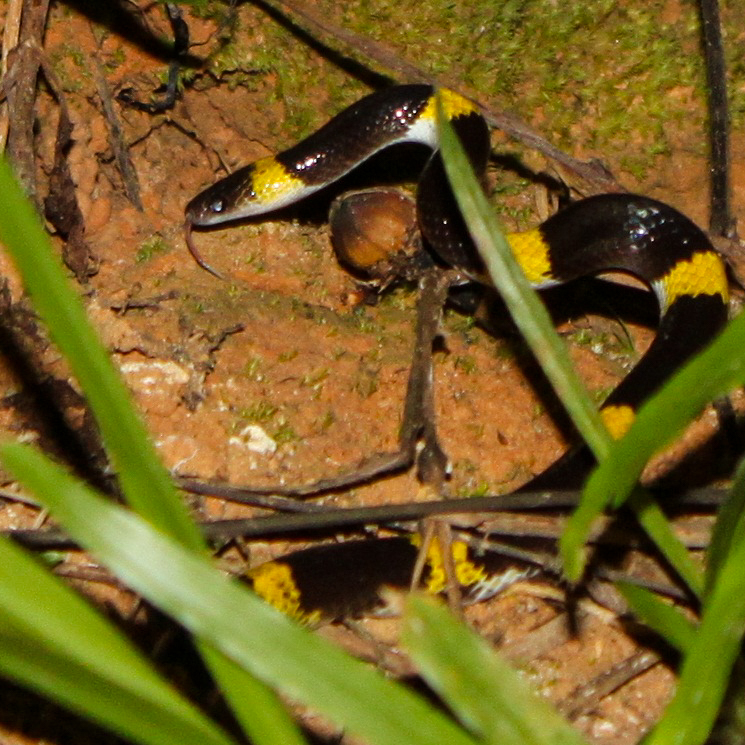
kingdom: Animalia
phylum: Chordata
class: Squamata
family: Colubridae
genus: Lycodon
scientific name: Lycodon laoensis
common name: Laotian wolf snake
